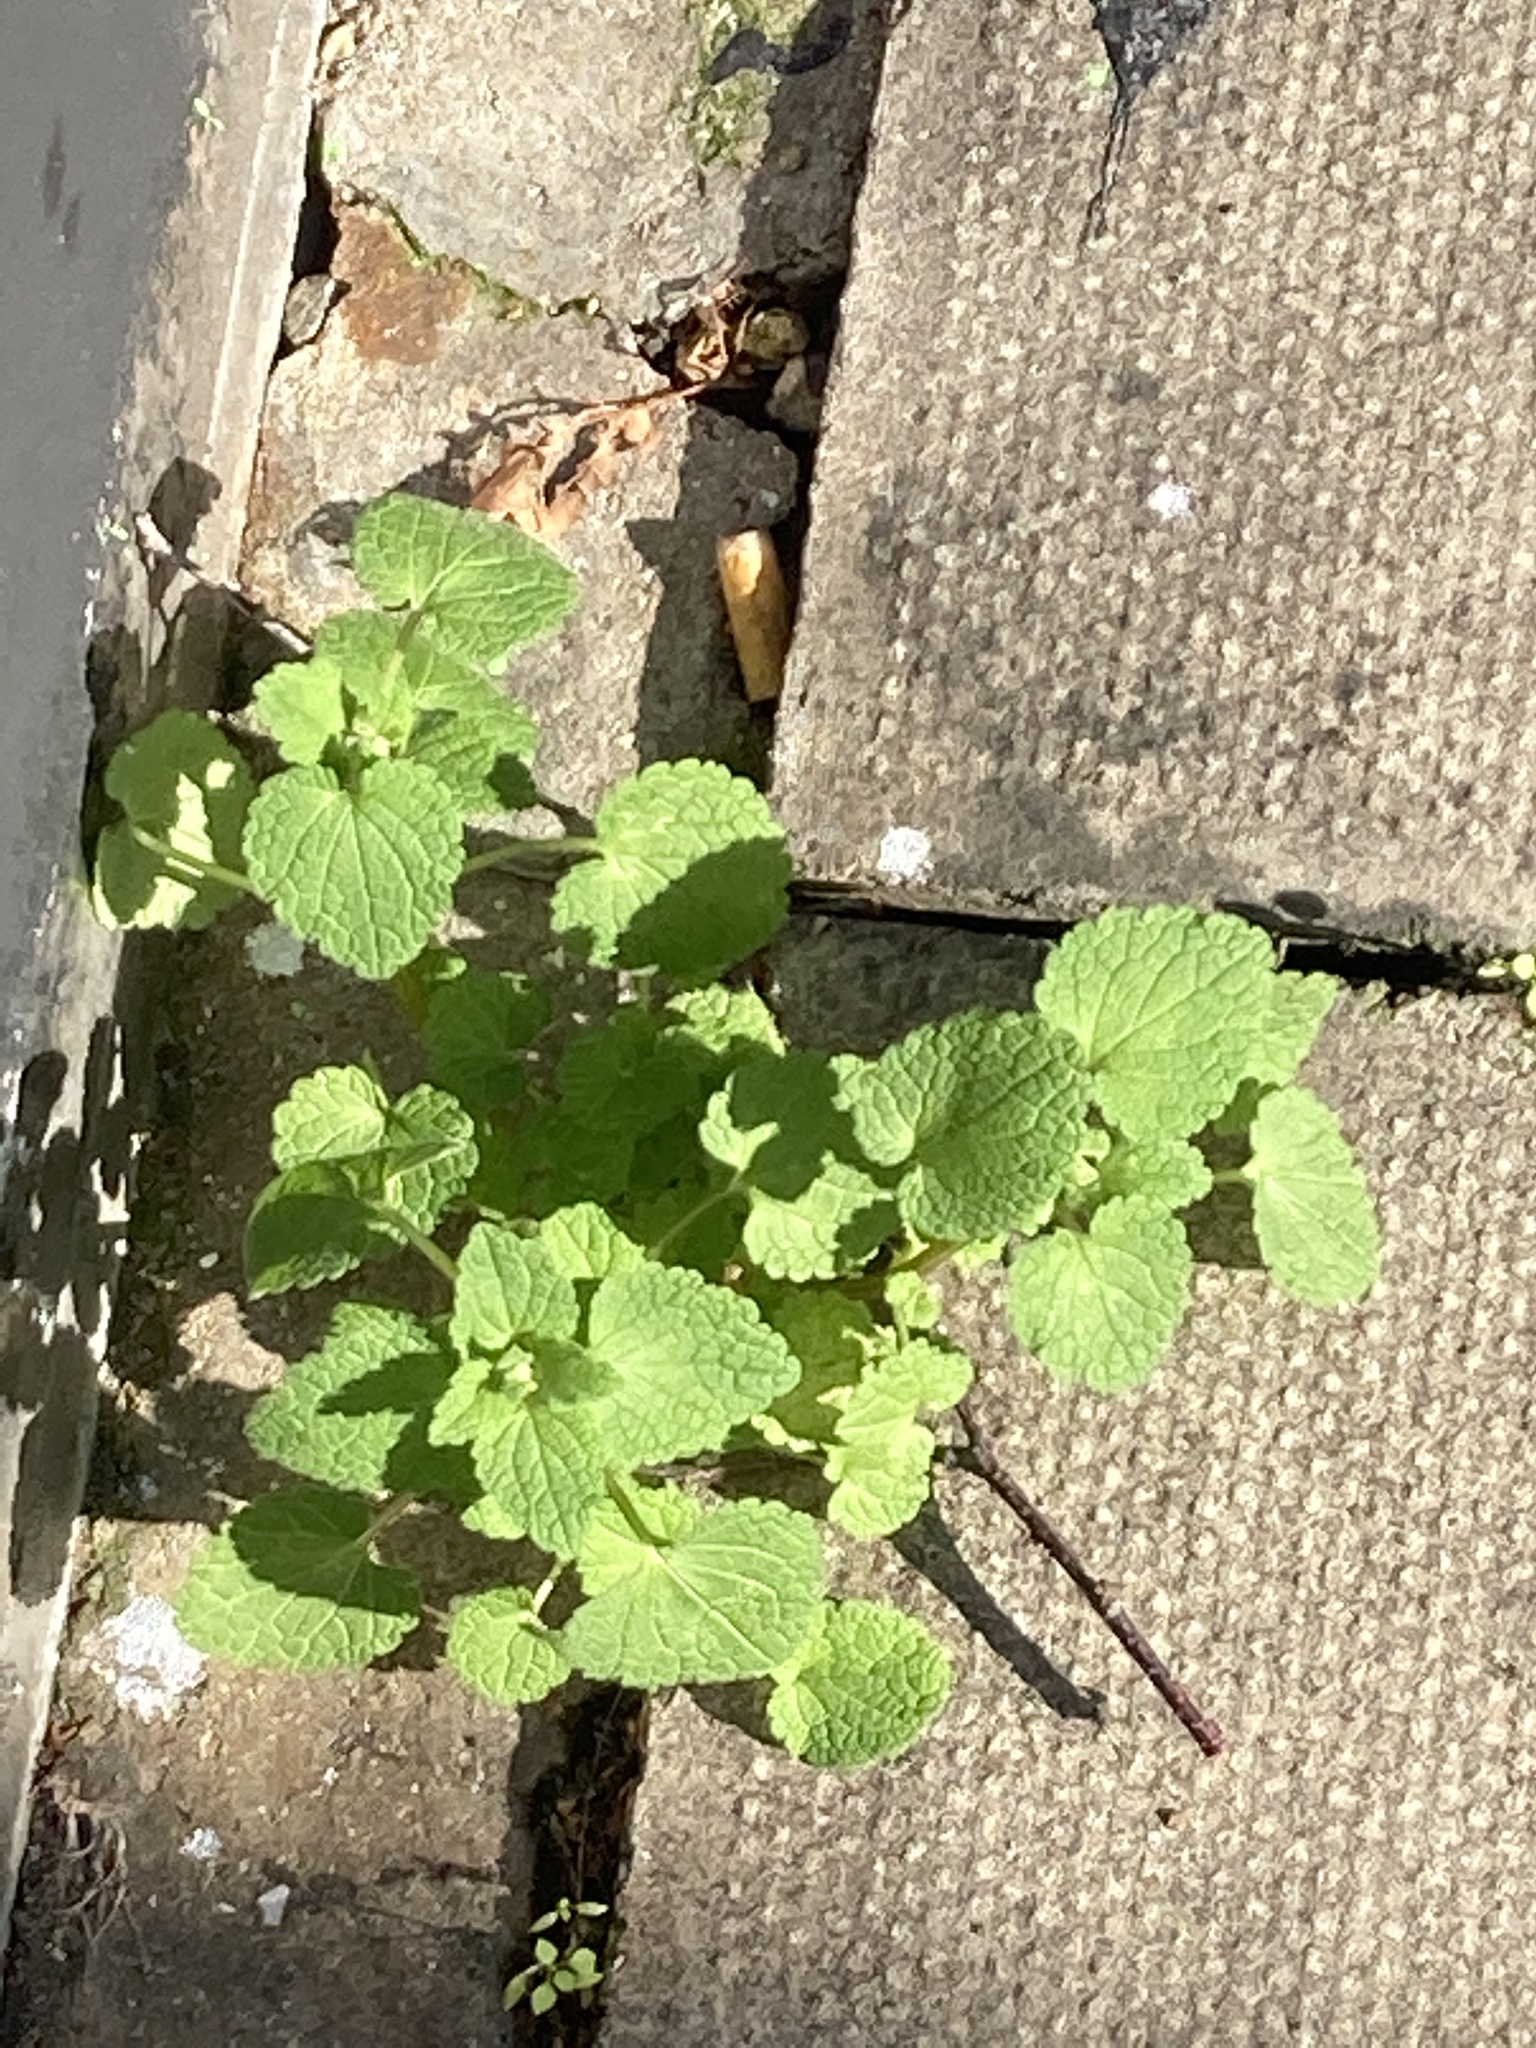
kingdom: Plantae
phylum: Tracheophyta
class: Magnoliopsida
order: Lamiales
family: Lamiaceae
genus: Lamium
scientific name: Lamium purpureum
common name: Red dead-nettle
